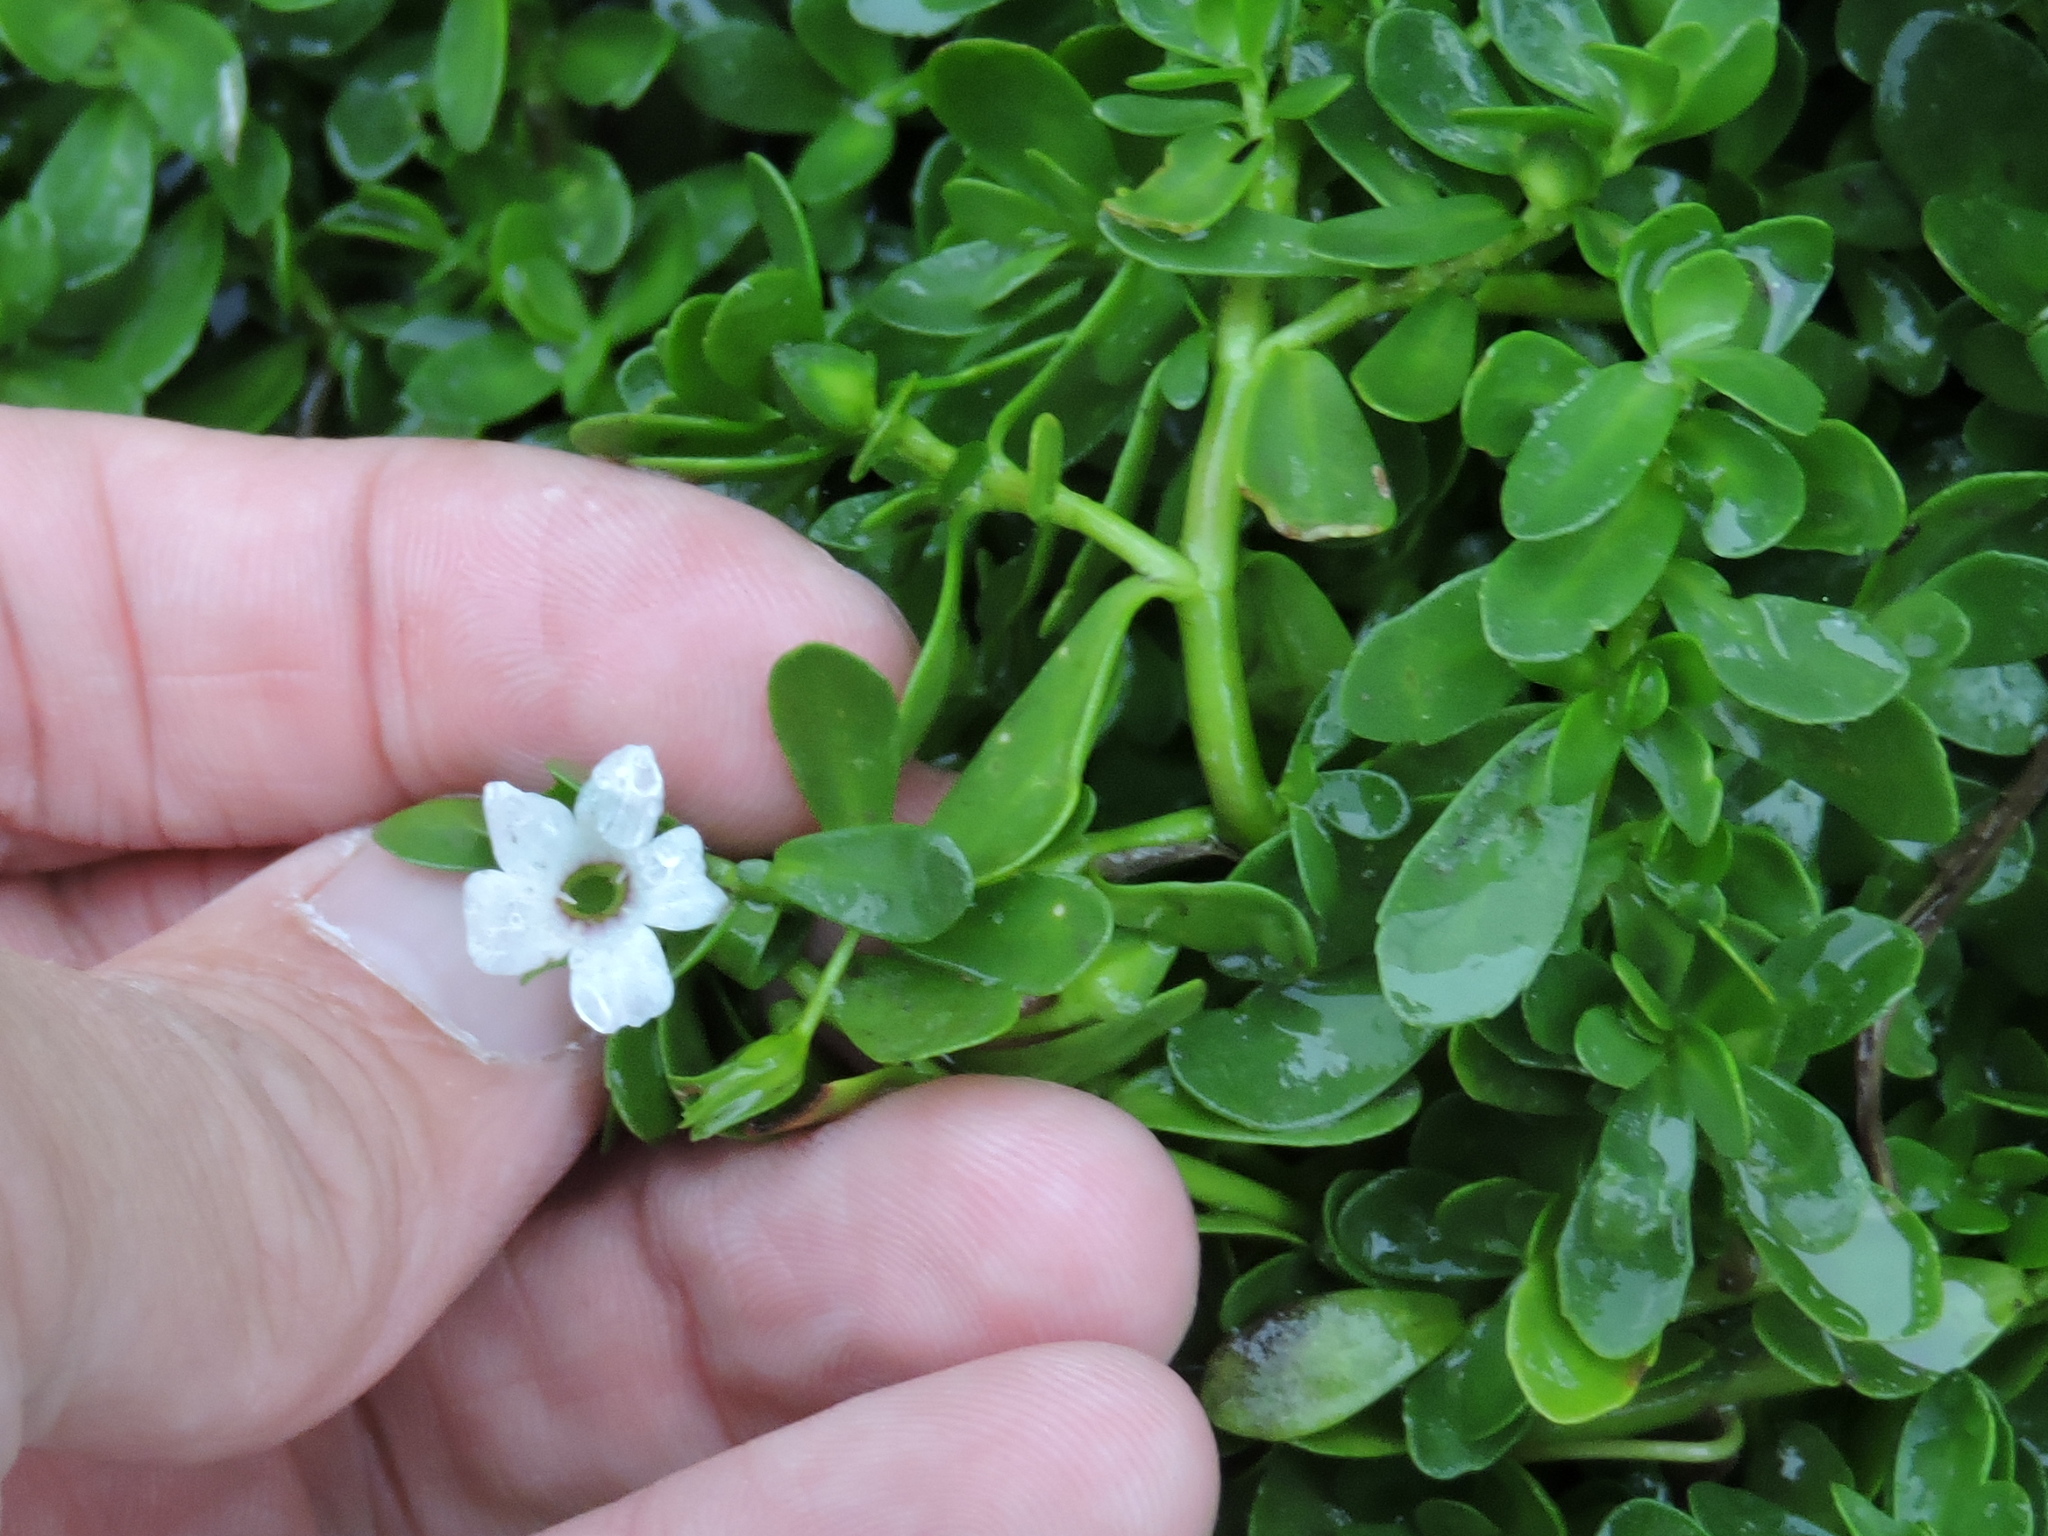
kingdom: Plantae
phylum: Tracheophyta
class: Magnoliopsida
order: Lamiales
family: Plantaginaceae
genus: Bacopa
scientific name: Bacopa monnieri
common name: Indian-pennywort
